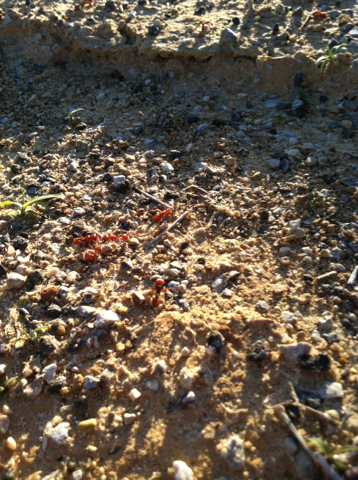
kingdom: Animalia
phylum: Arthropoda
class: Insecta
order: Hymenoptera
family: Formicidae
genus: Pogonomyrmex
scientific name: Pogonomyrmex barbatus
